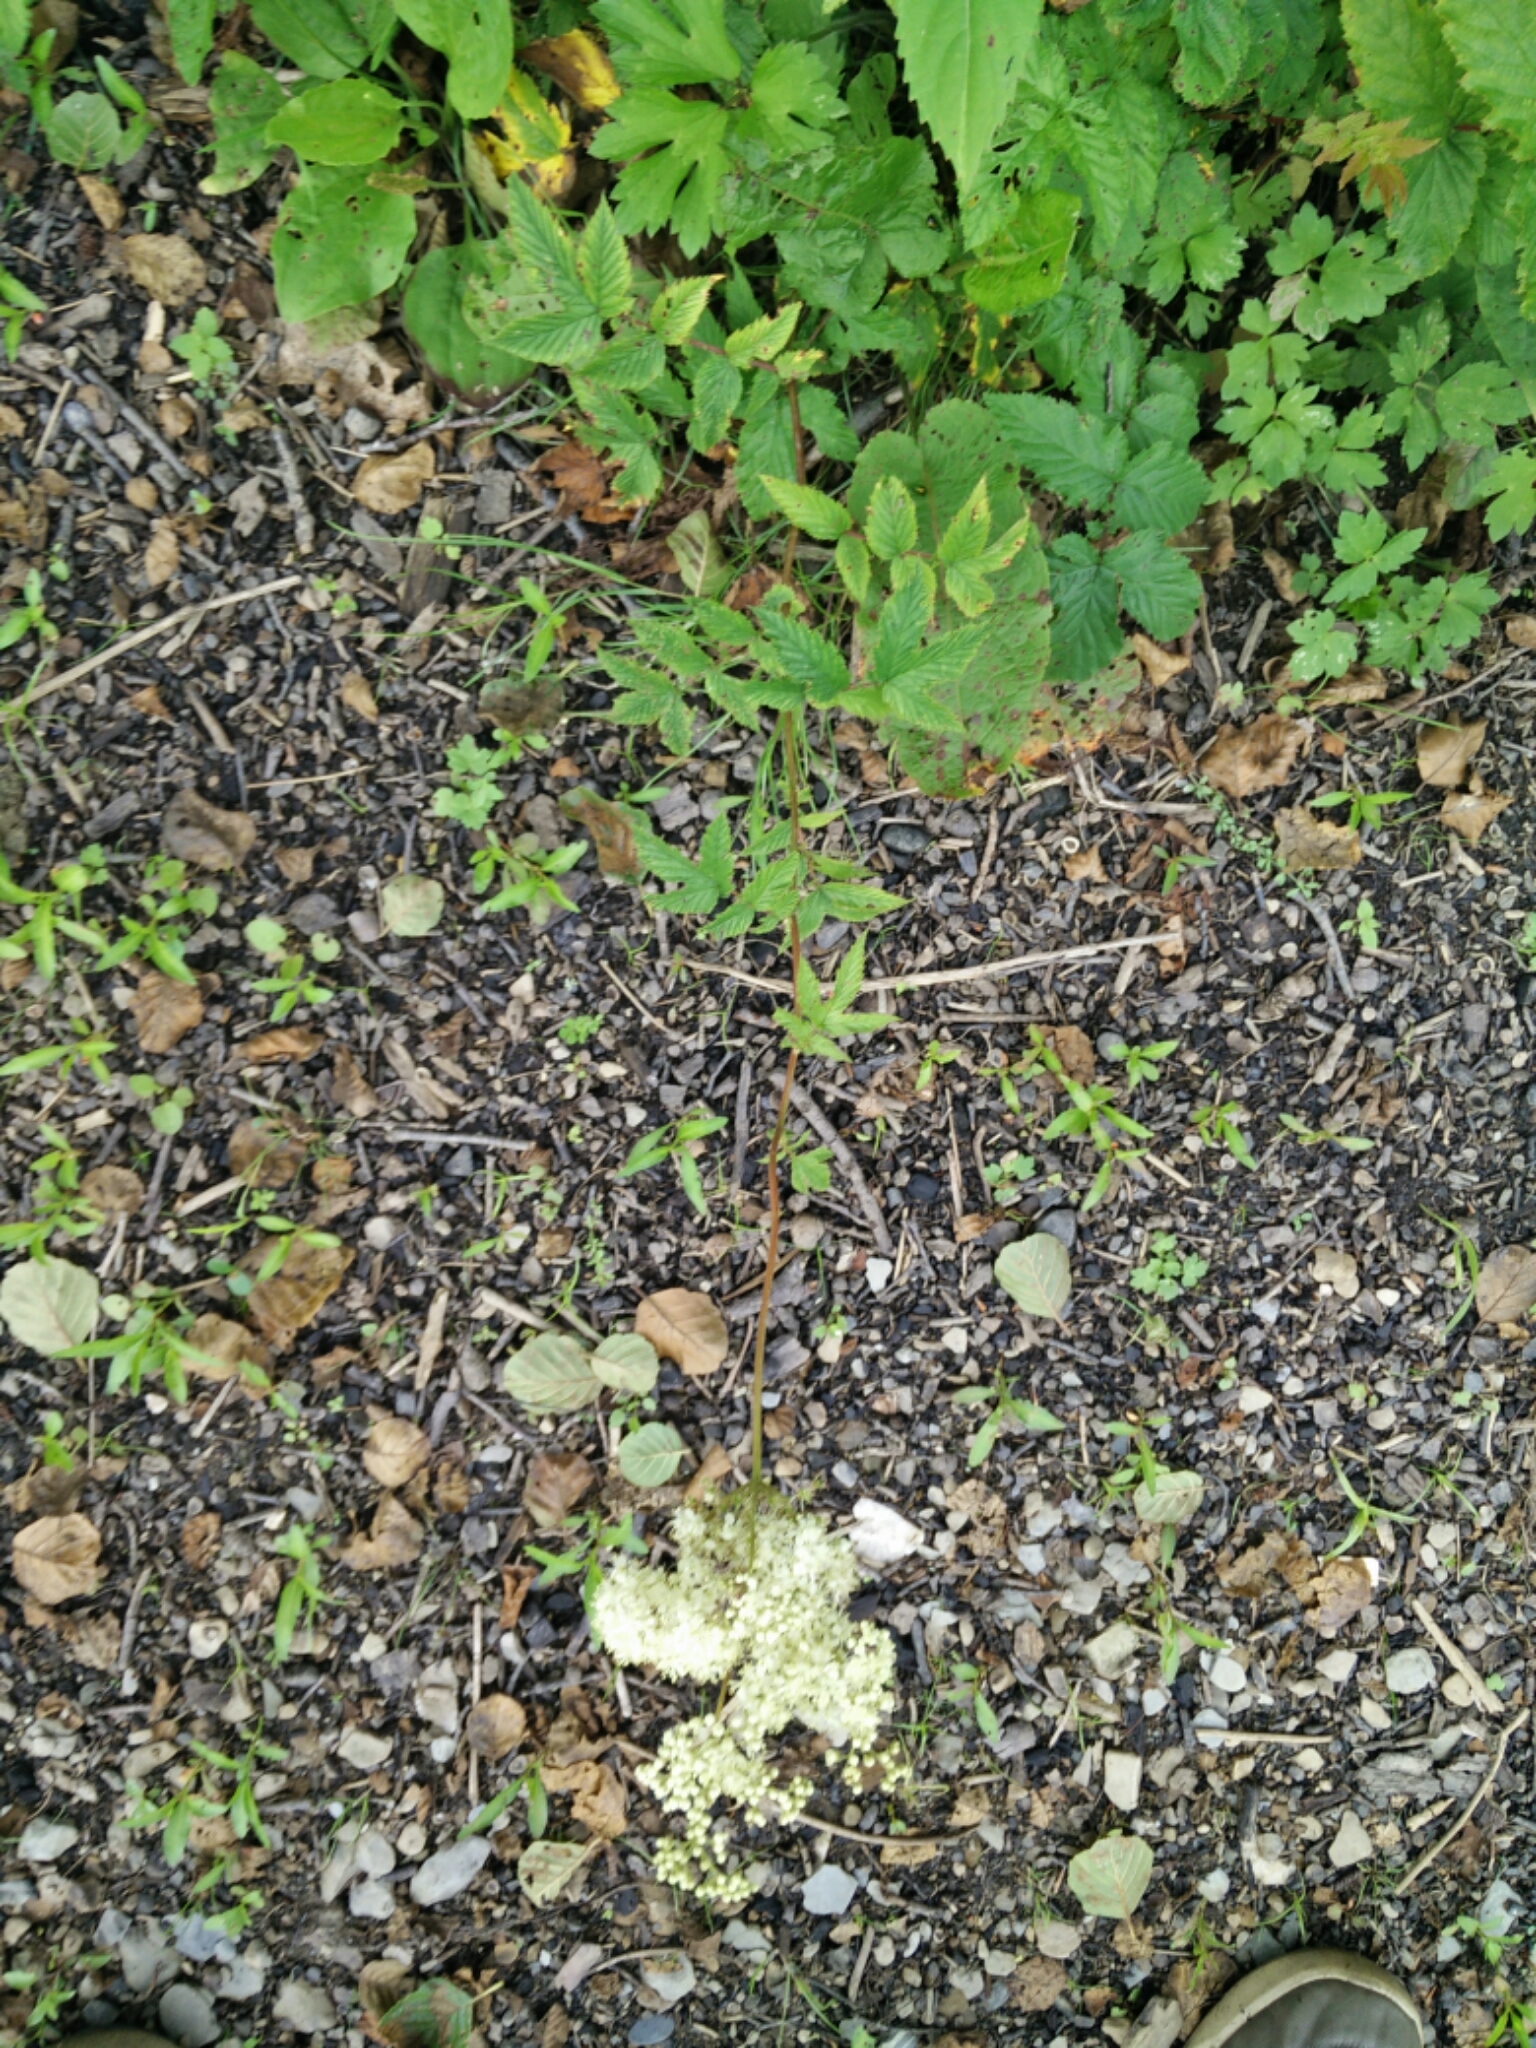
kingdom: Plantae
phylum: Tracheophyta
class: Magnoliopsida
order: Rosales
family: Rosaceae
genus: Filipendula
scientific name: Filipendula ulmaria
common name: Meadowsweet
